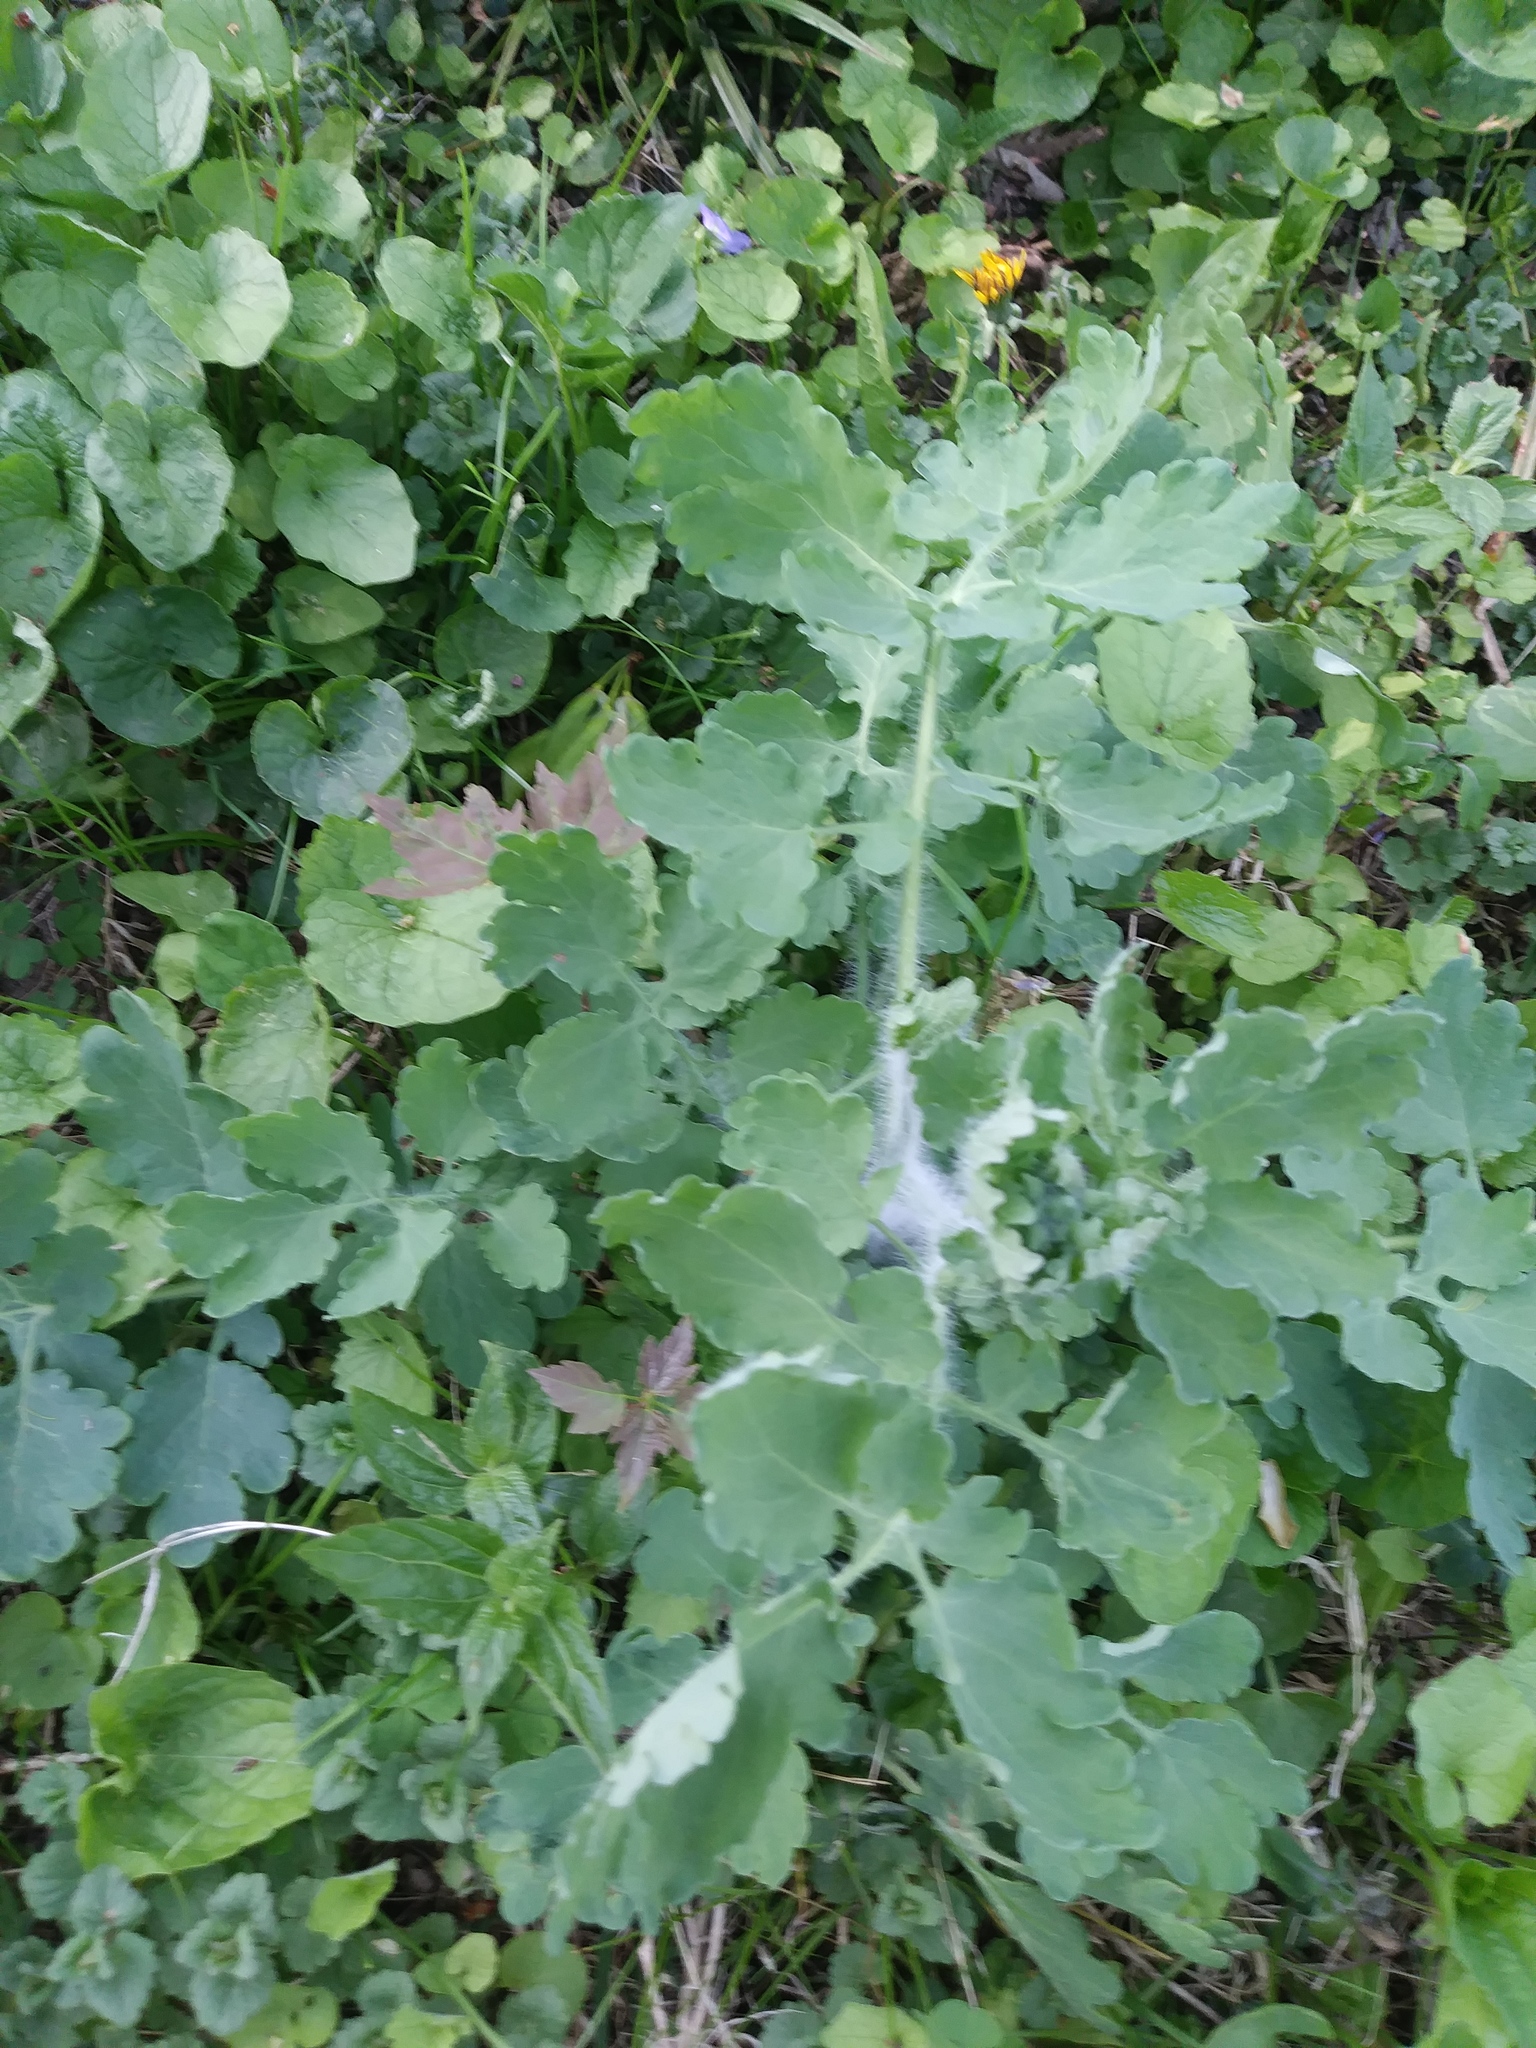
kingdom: Plantae
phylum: Tracheophyta
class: Magnoliopsida
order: Ranunculales
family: Papaveraceae
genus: Chelidonium
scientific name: Chelidonium majus
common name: Greater celandine
